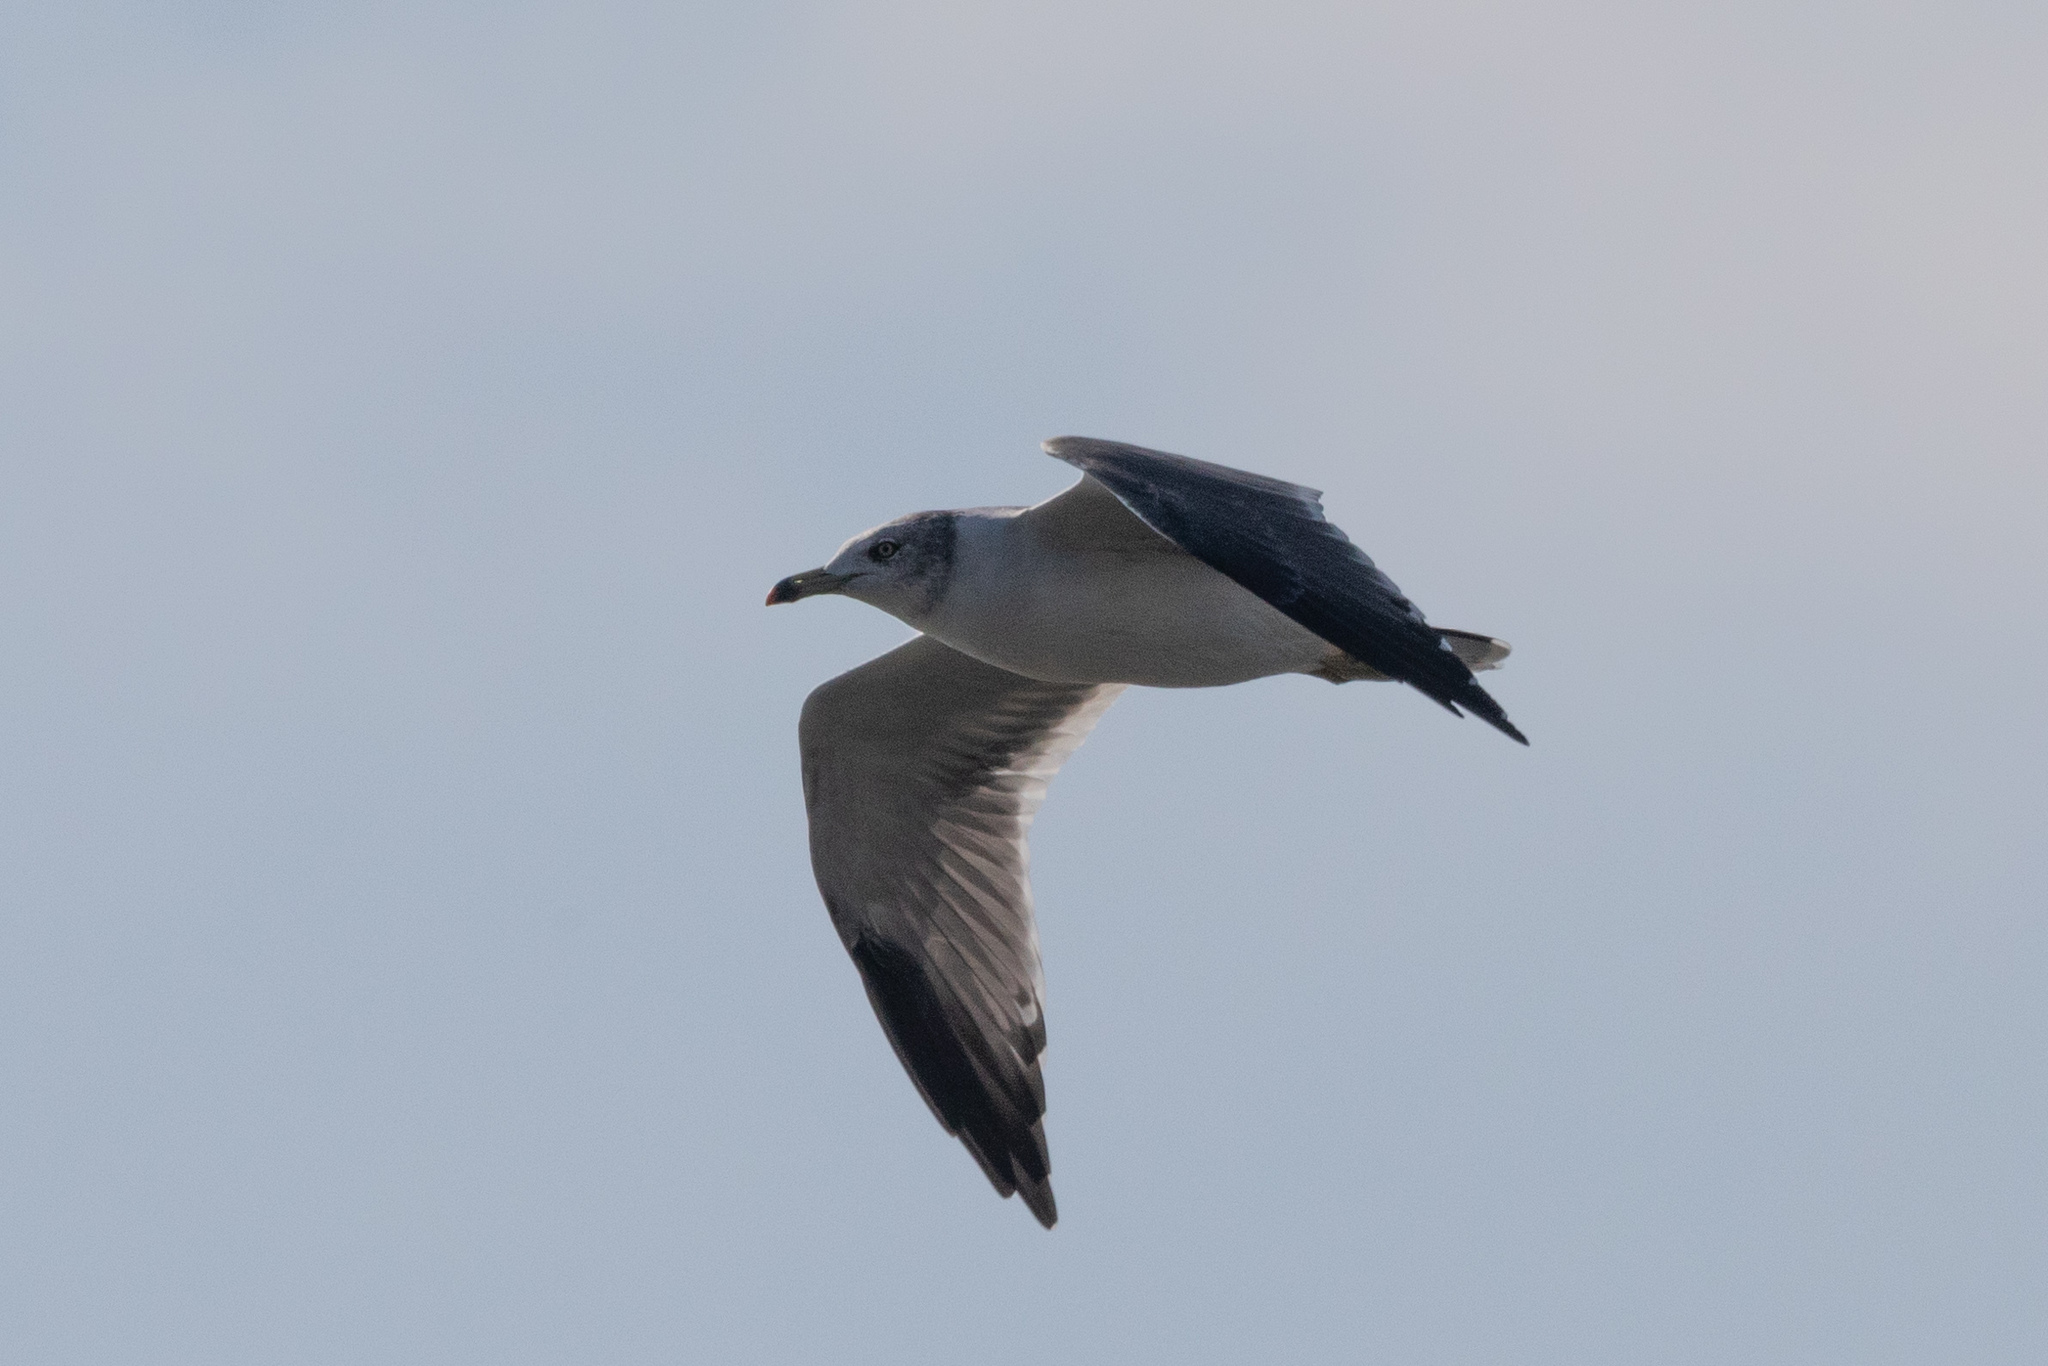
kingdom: Animalia
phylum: Chordata
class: Aves
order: Charadriiformes
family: Laridae
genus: Larus
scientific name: Larus crassirostris
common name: Black-tailed gull
